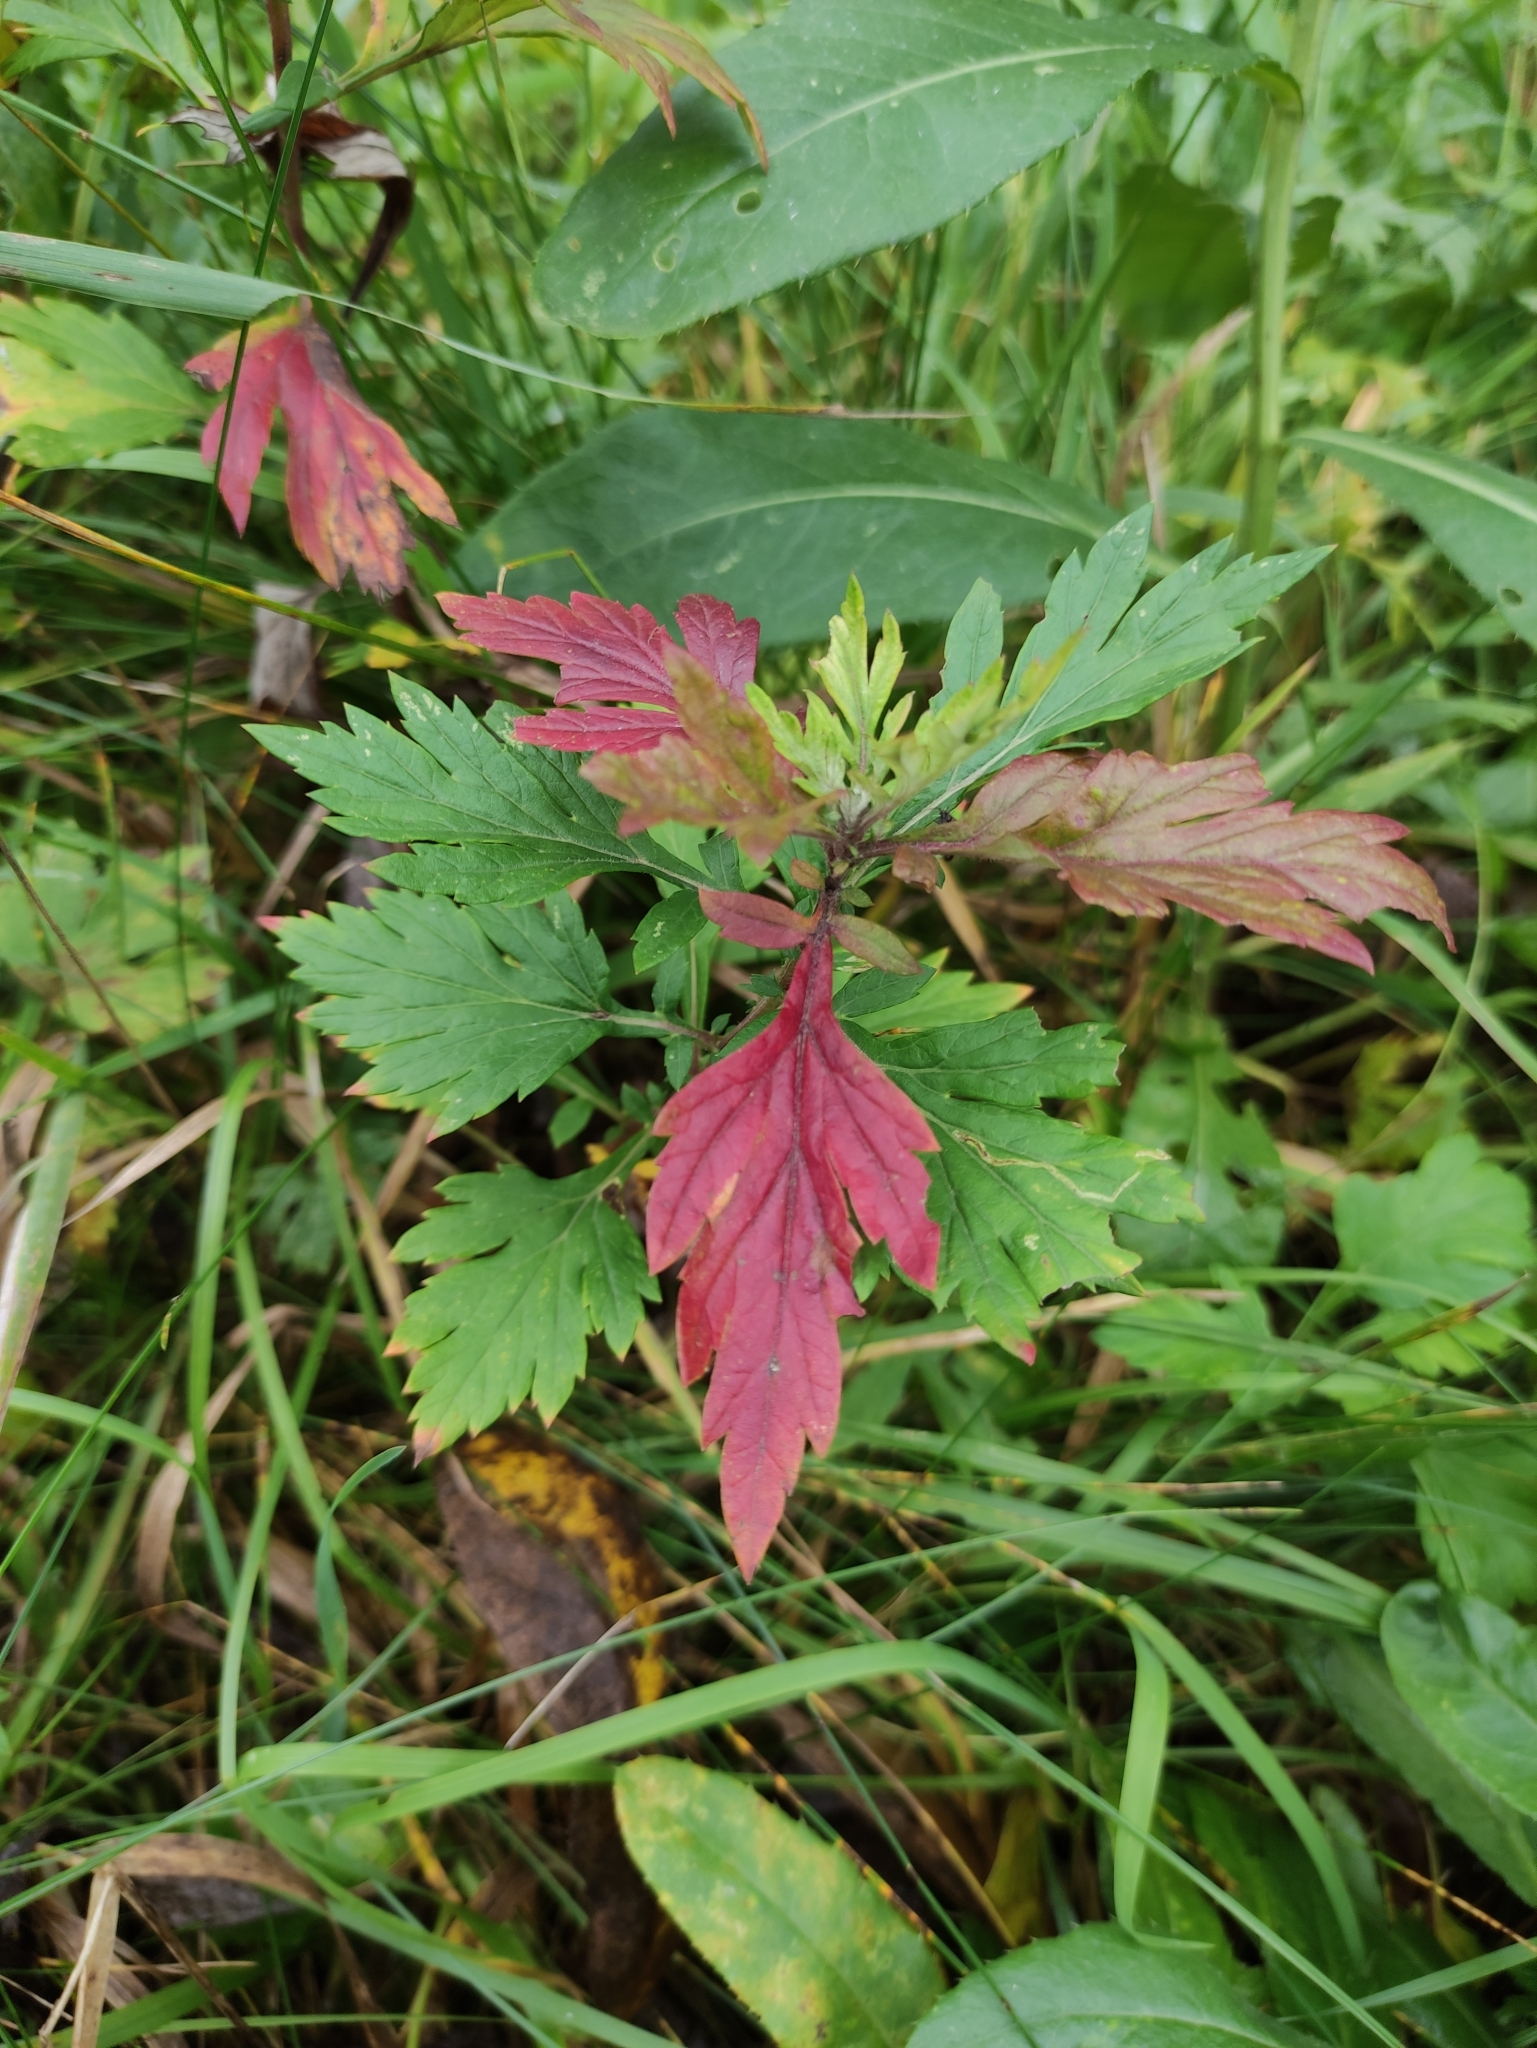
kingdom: Plantae
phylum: Tracheophyta
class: Magnoliopsida
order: Asterales
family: Asteraceae
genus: Artemisia
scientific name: Artemisia vulgaris
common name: Mugwort
